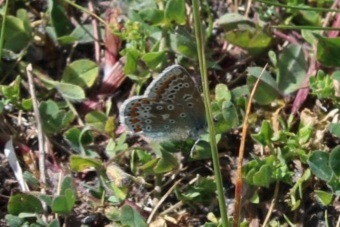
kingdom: Animalia
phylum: Arthropoda
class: Insecta
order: Lepidoptera
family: Lycaenidae
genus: Polyommatus
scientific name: Polyommatus icarus
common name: Common blue
